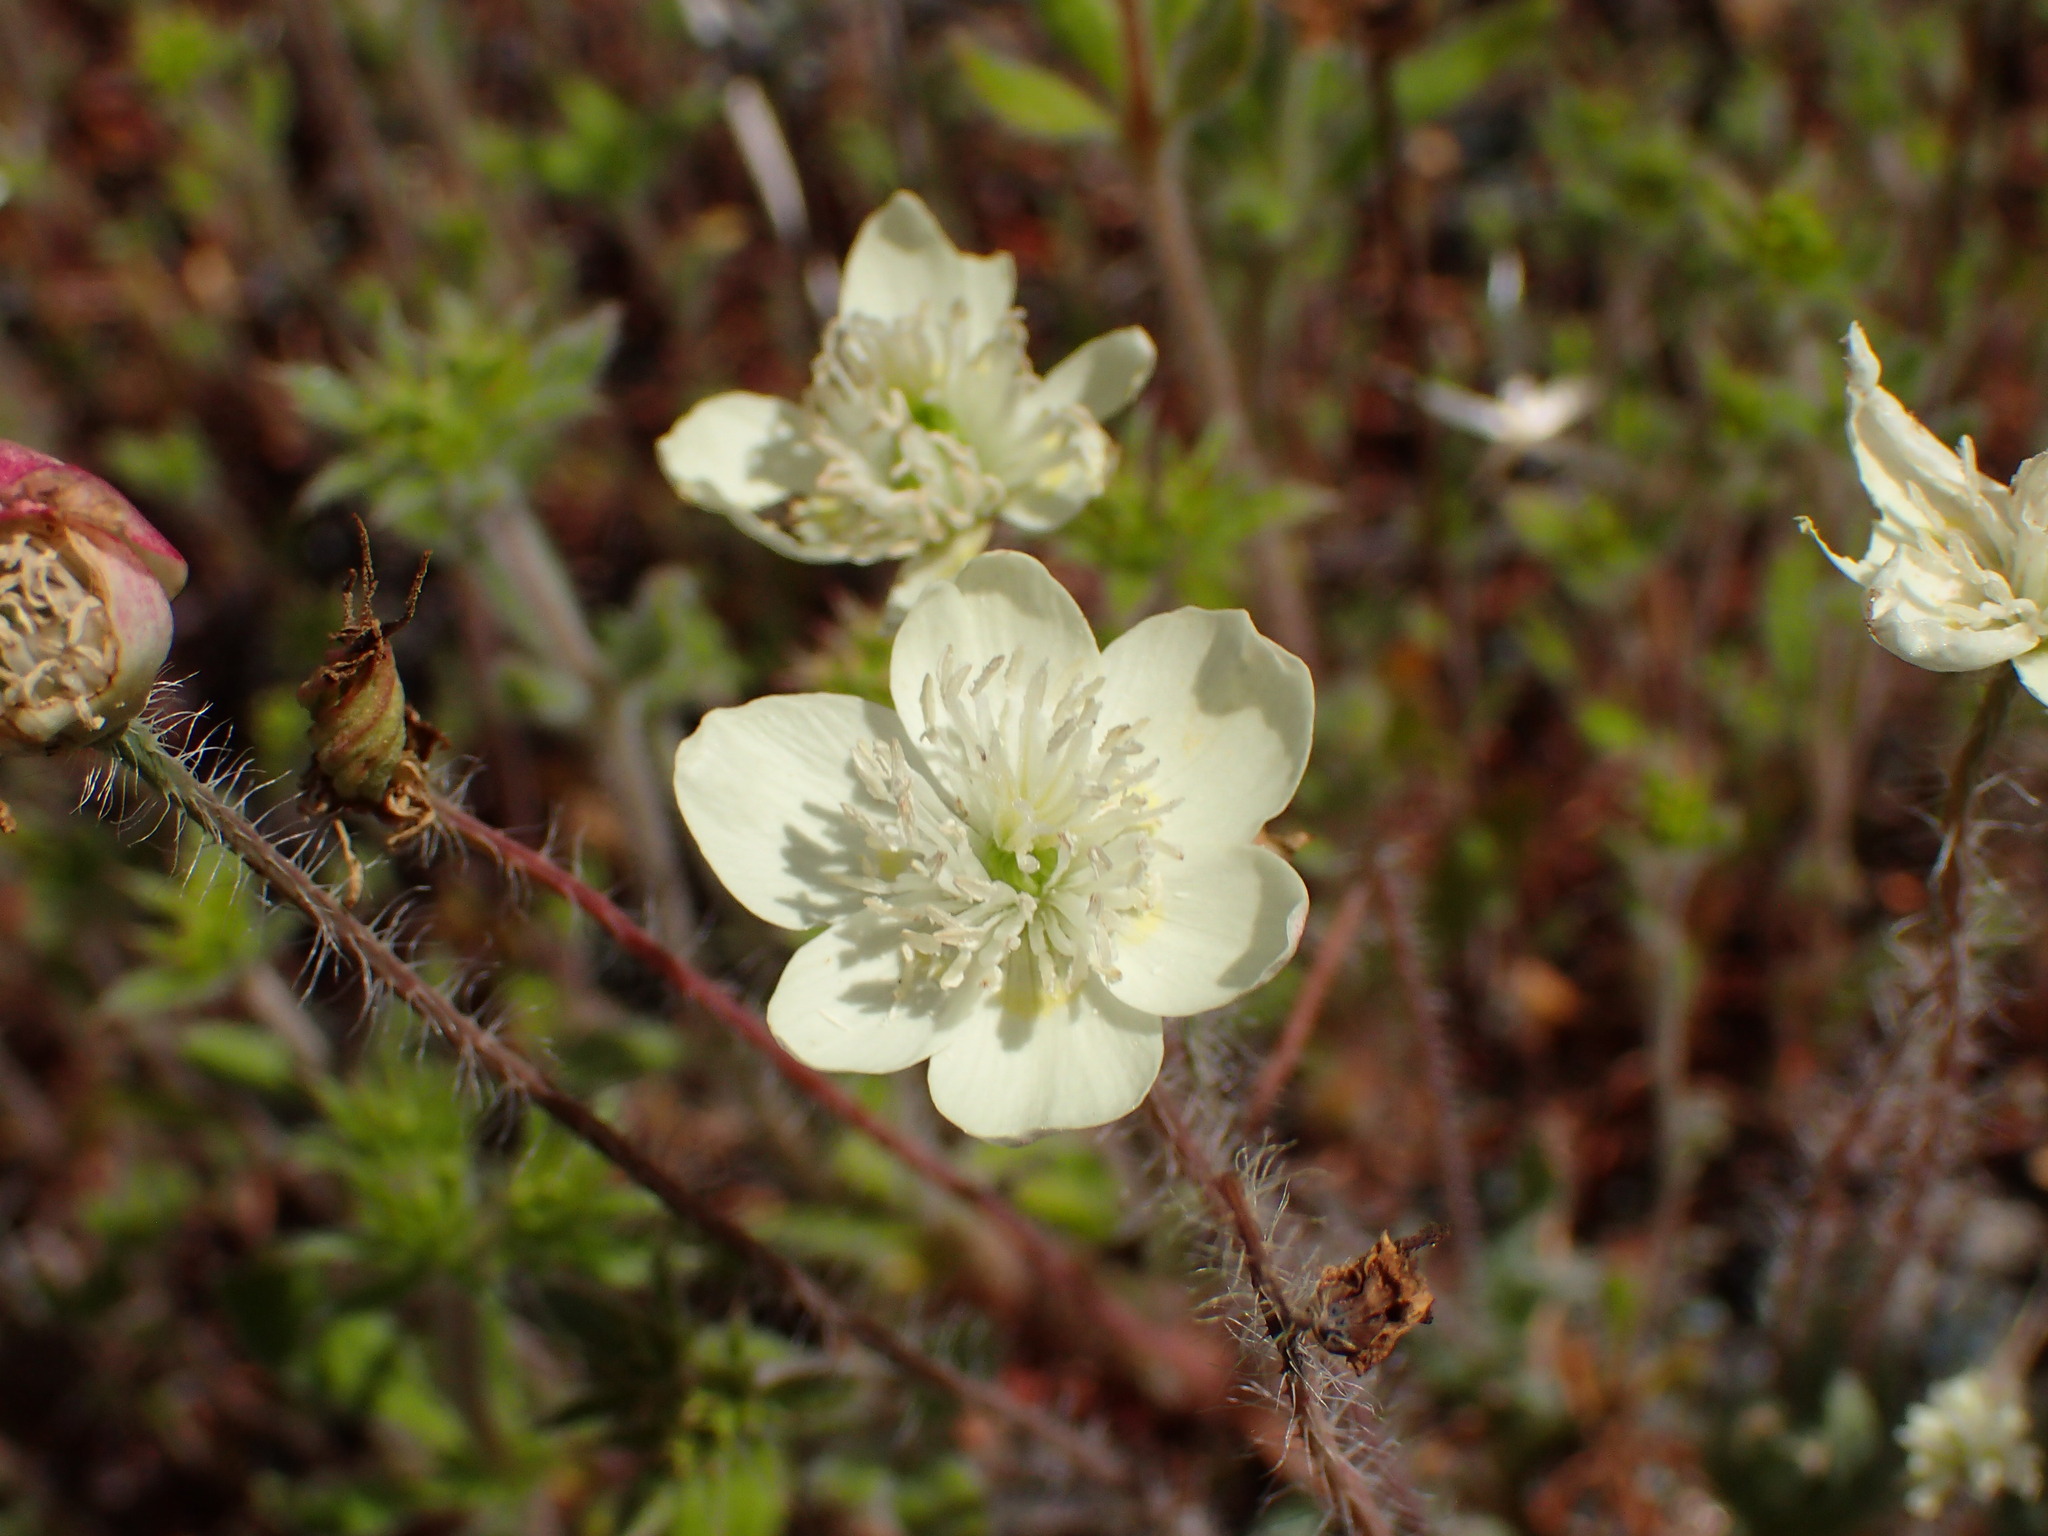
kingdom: Plantae
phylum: Tracheophyta
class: Magnoliopsida
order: Ranunculales
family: Papaveraceae
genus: Platystemon
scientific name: Platystemon californicus
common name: Cream-cups
